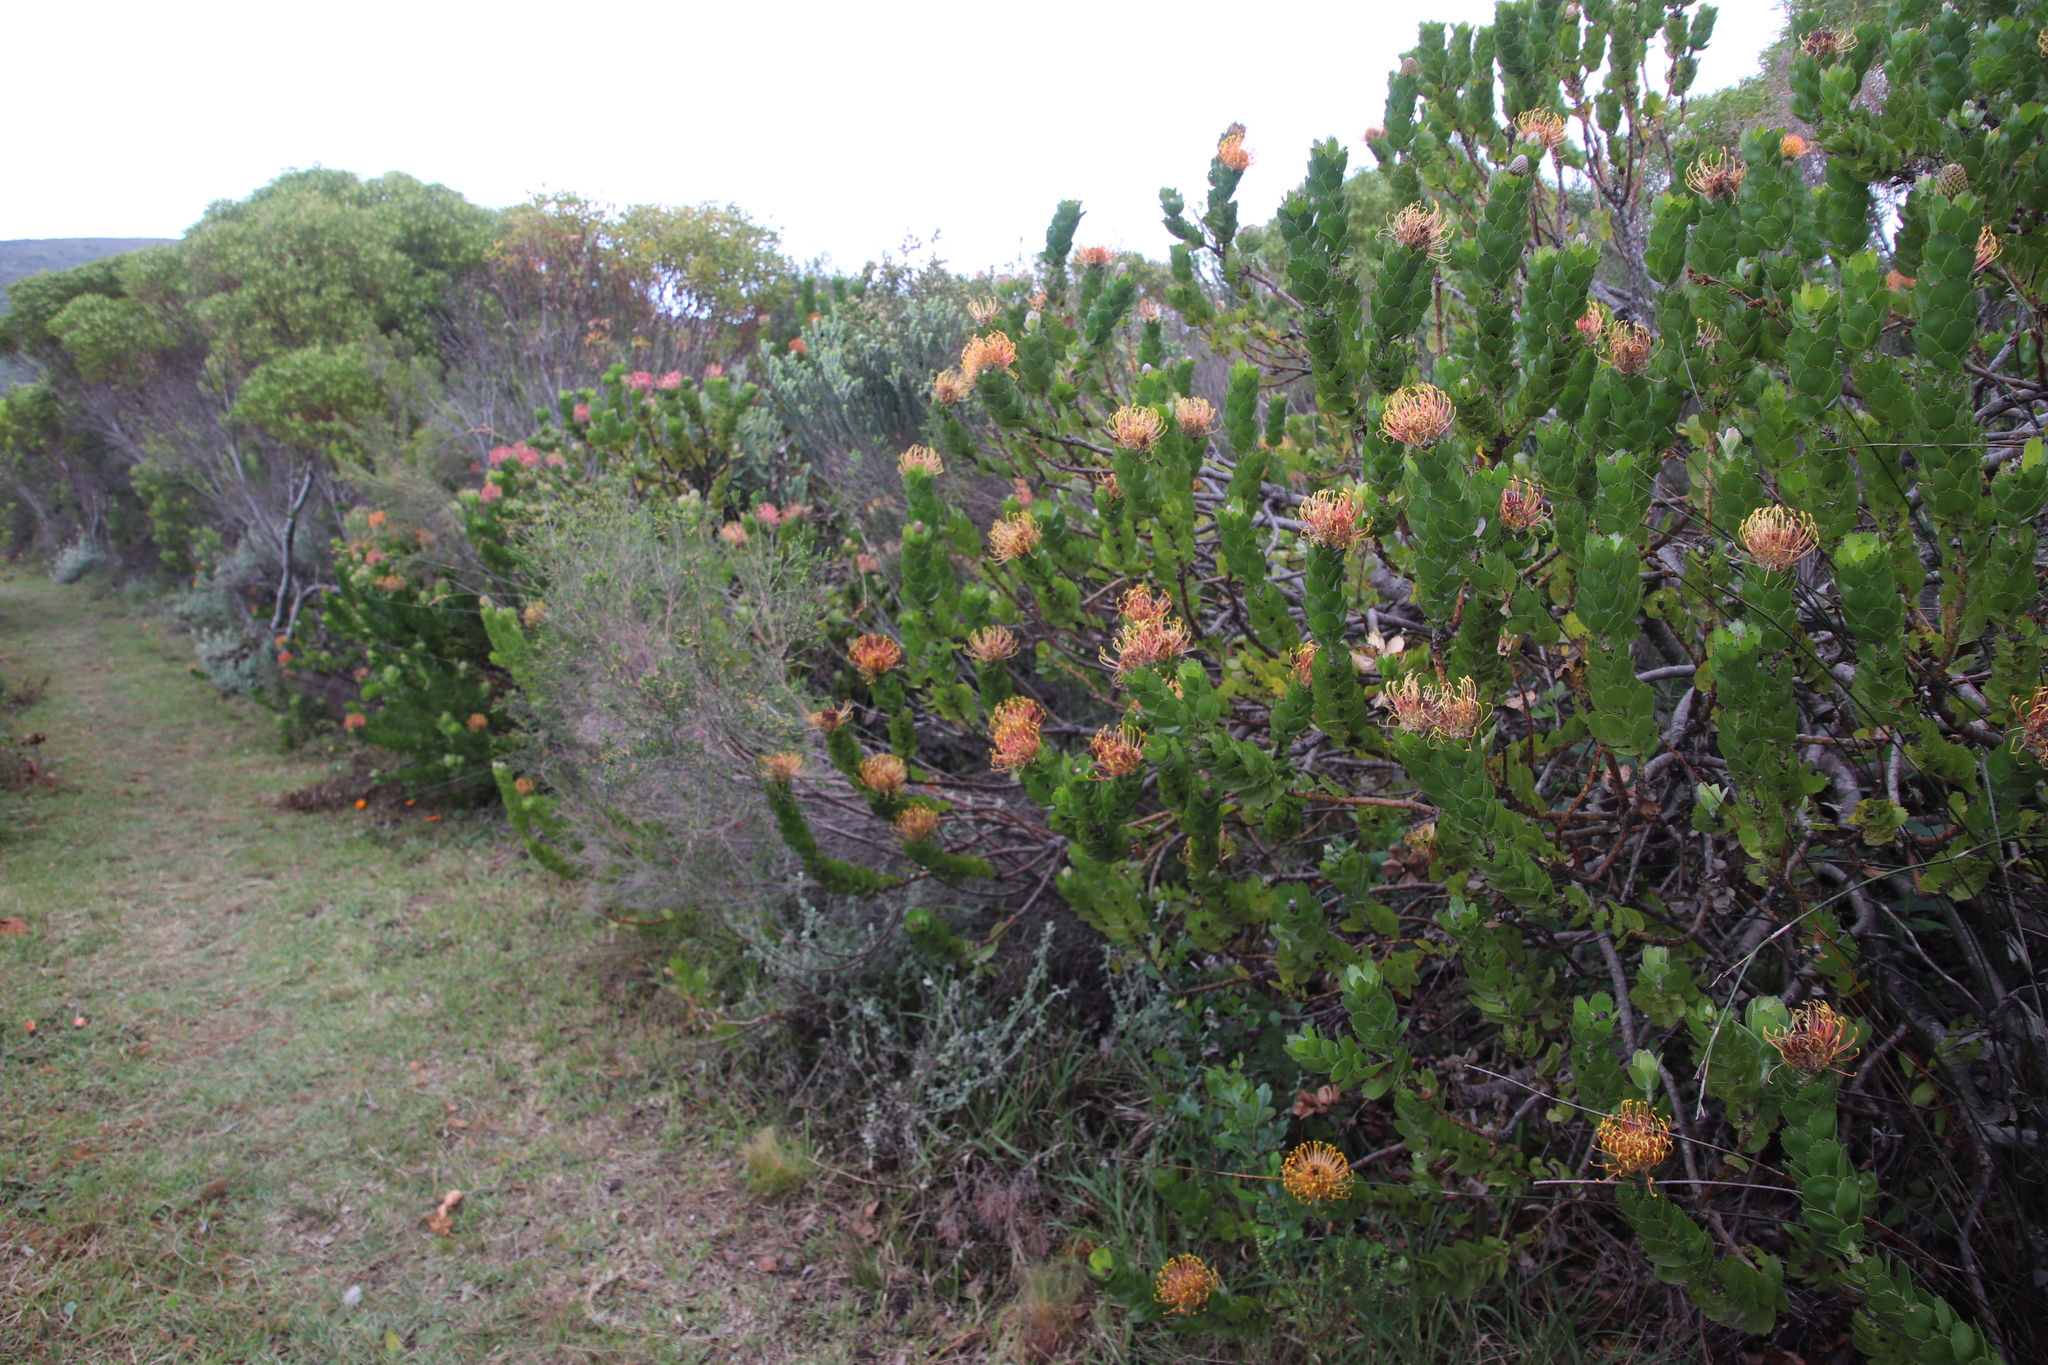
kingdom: Plantae
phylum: Tracheophyta
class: Magnoliopsida
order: Proteales
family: Proteaceae
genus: Leucospermum
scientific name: Leucospermum patersonii
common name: False tree pincushion
